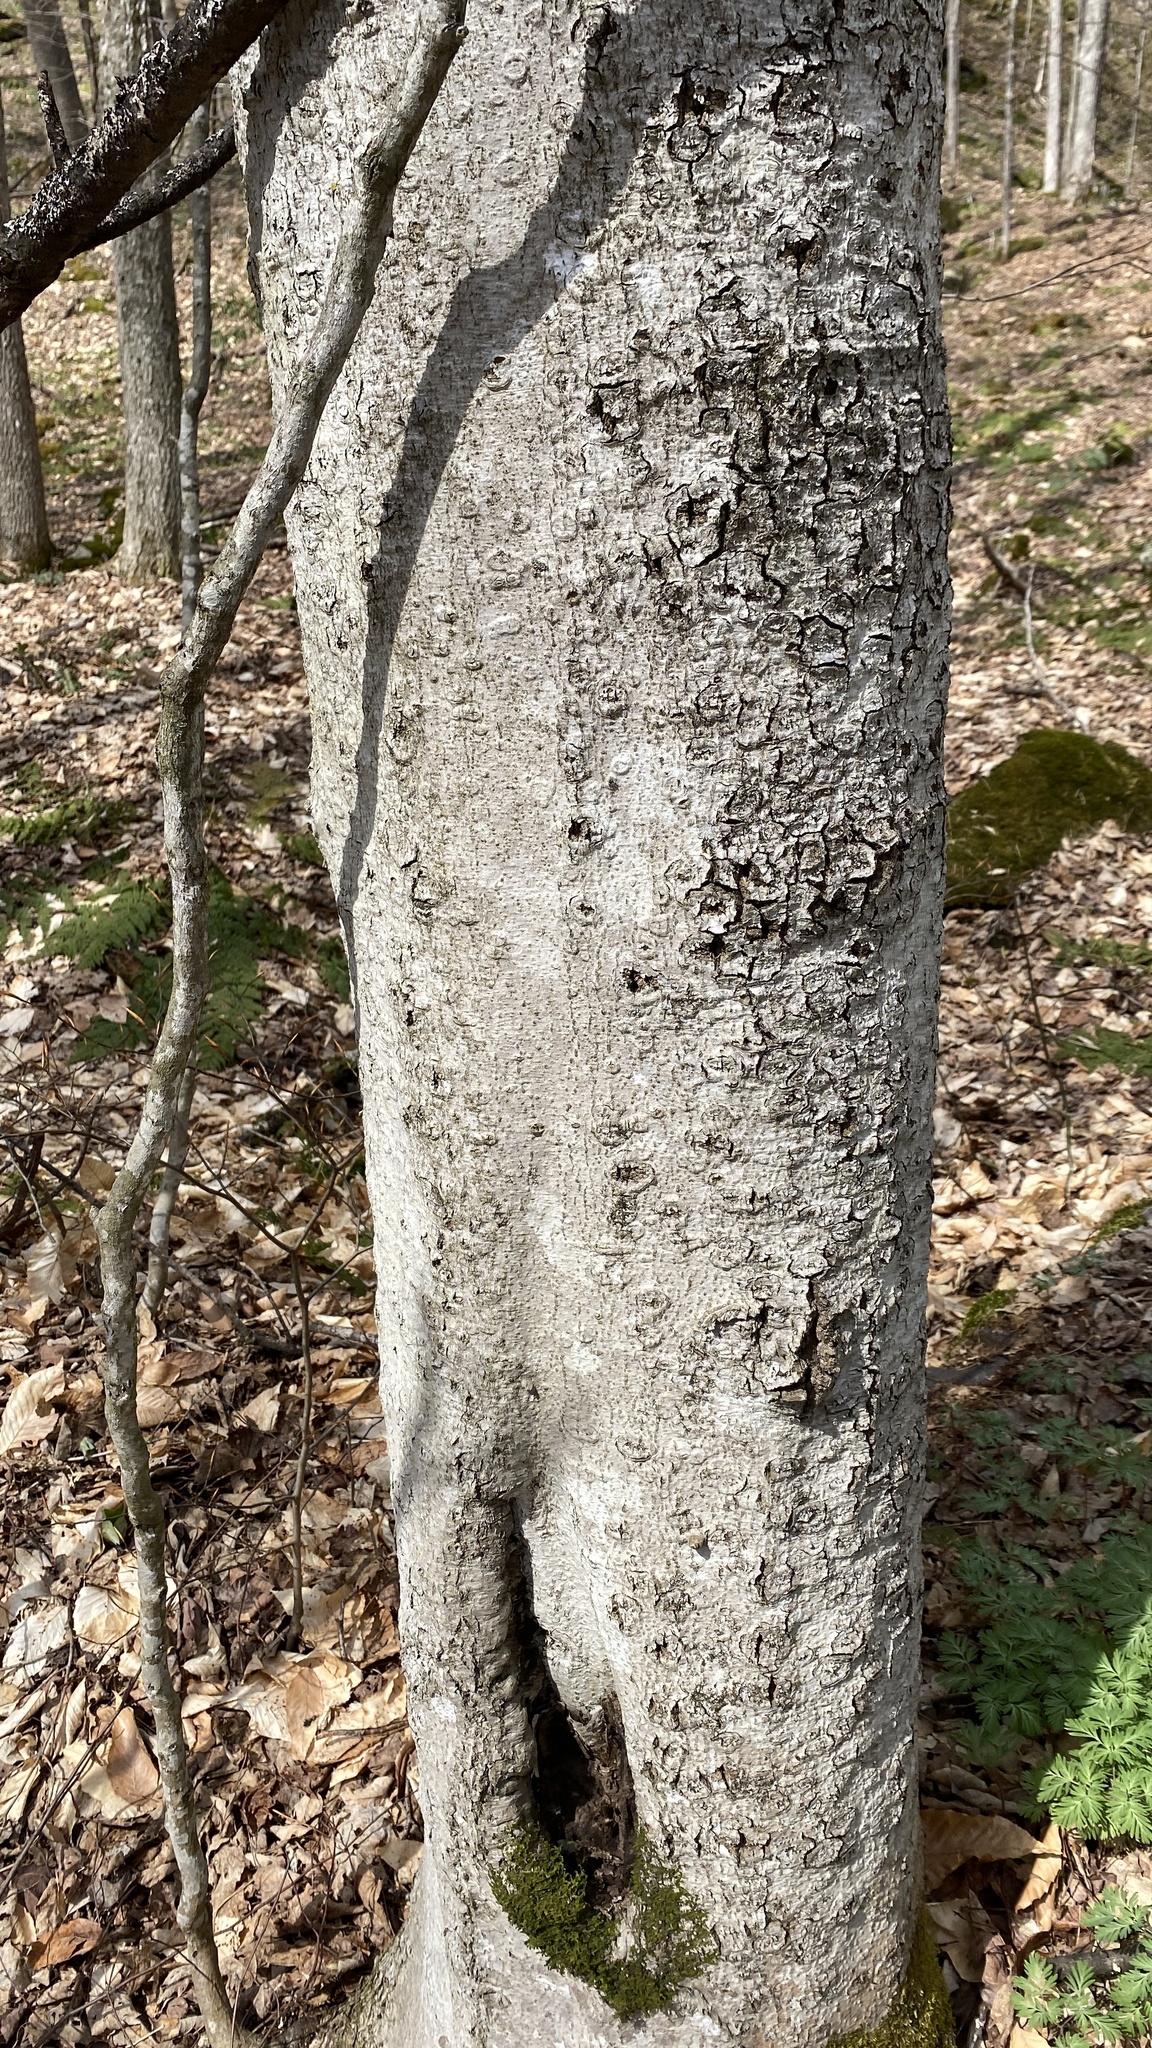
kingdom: Plantae
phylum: Tracheophyta
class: Magnoliopsida
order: Fagales
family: Fagaceae
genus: Fagus
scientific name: Fagus grandifolia
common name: American beech
